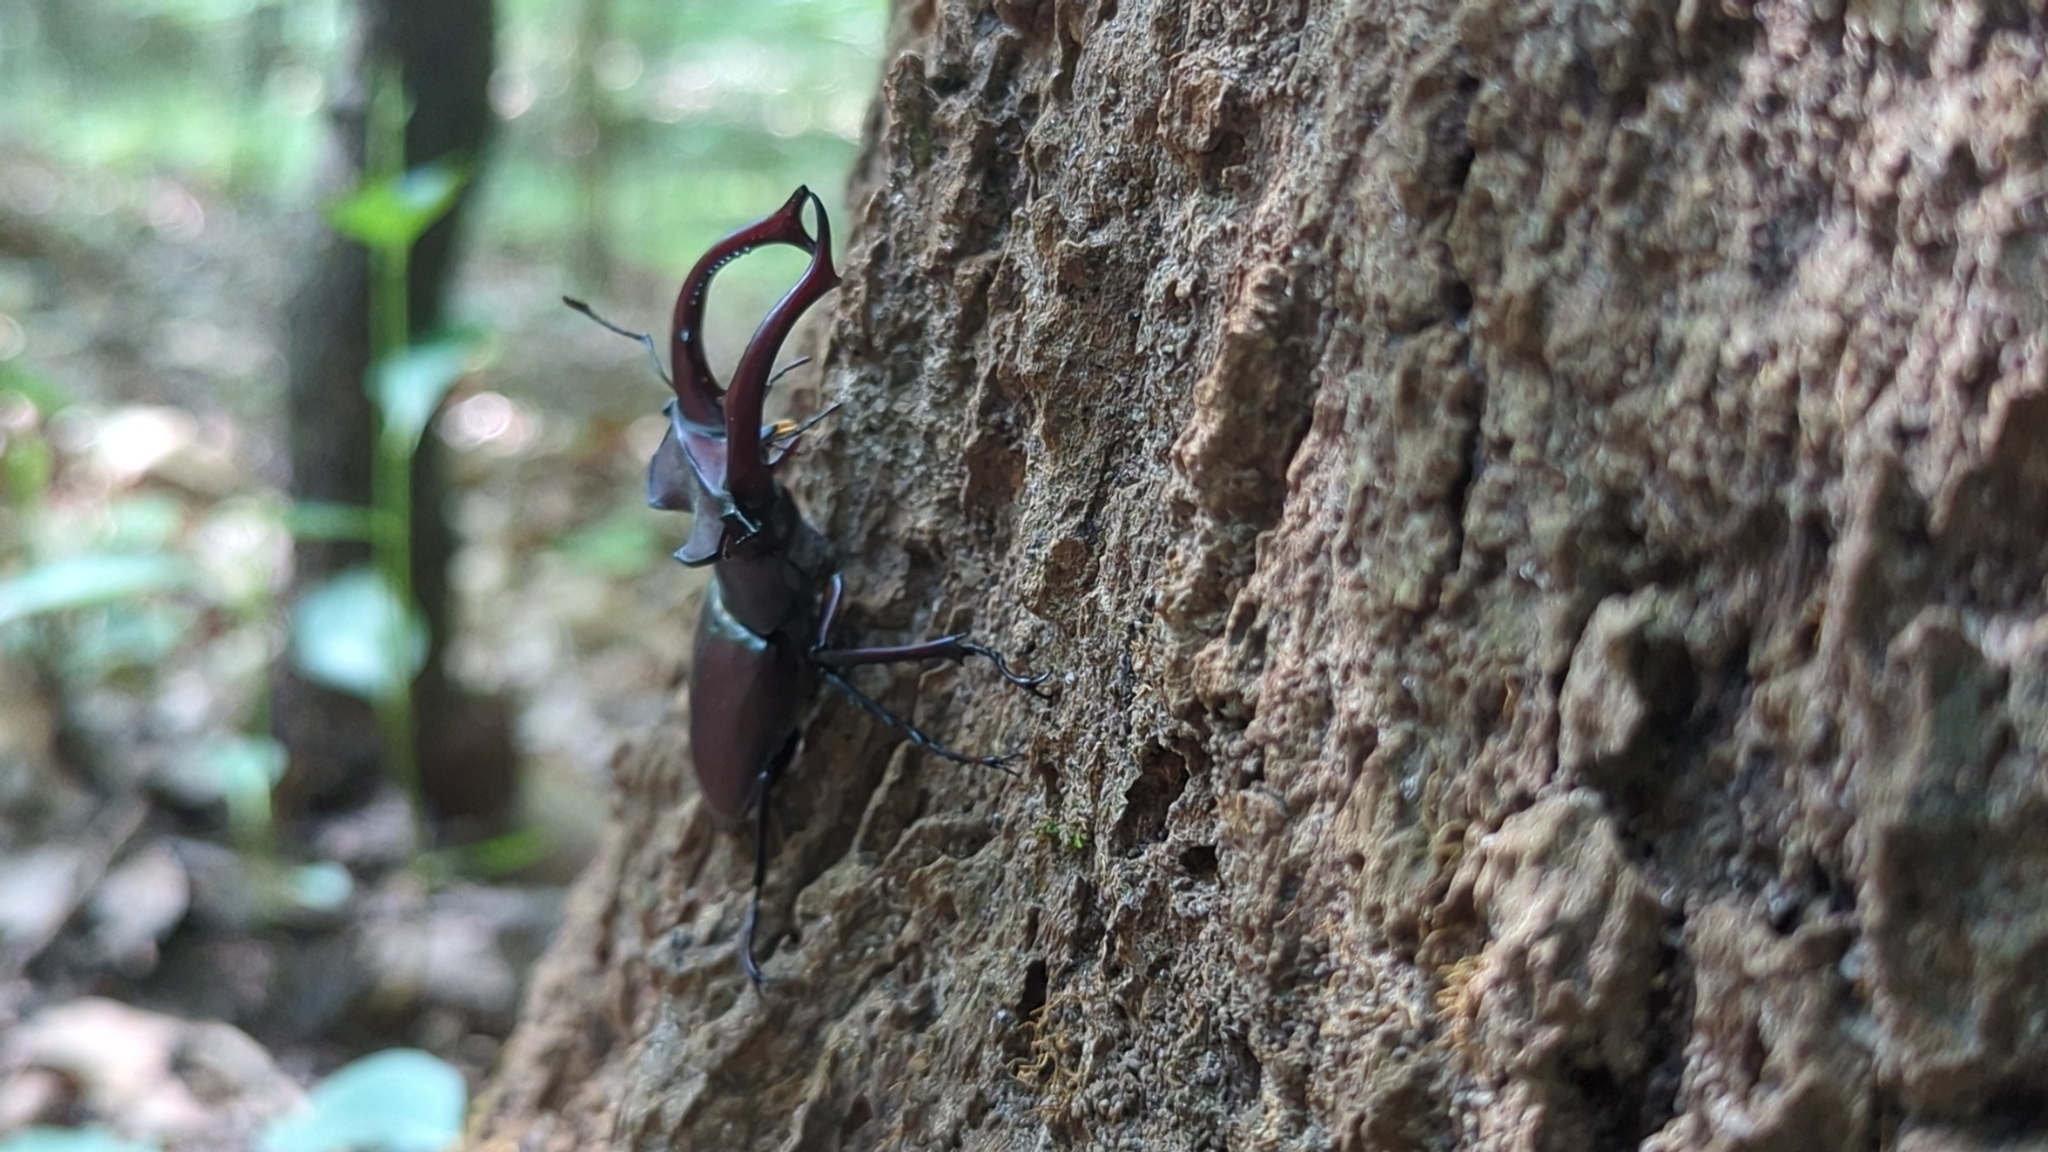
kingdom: Animalia
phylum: Arthropoda
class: Insecta
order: Coleoptera
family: Lucanidae
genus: Lucanus
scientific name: Lucanus elaphus
